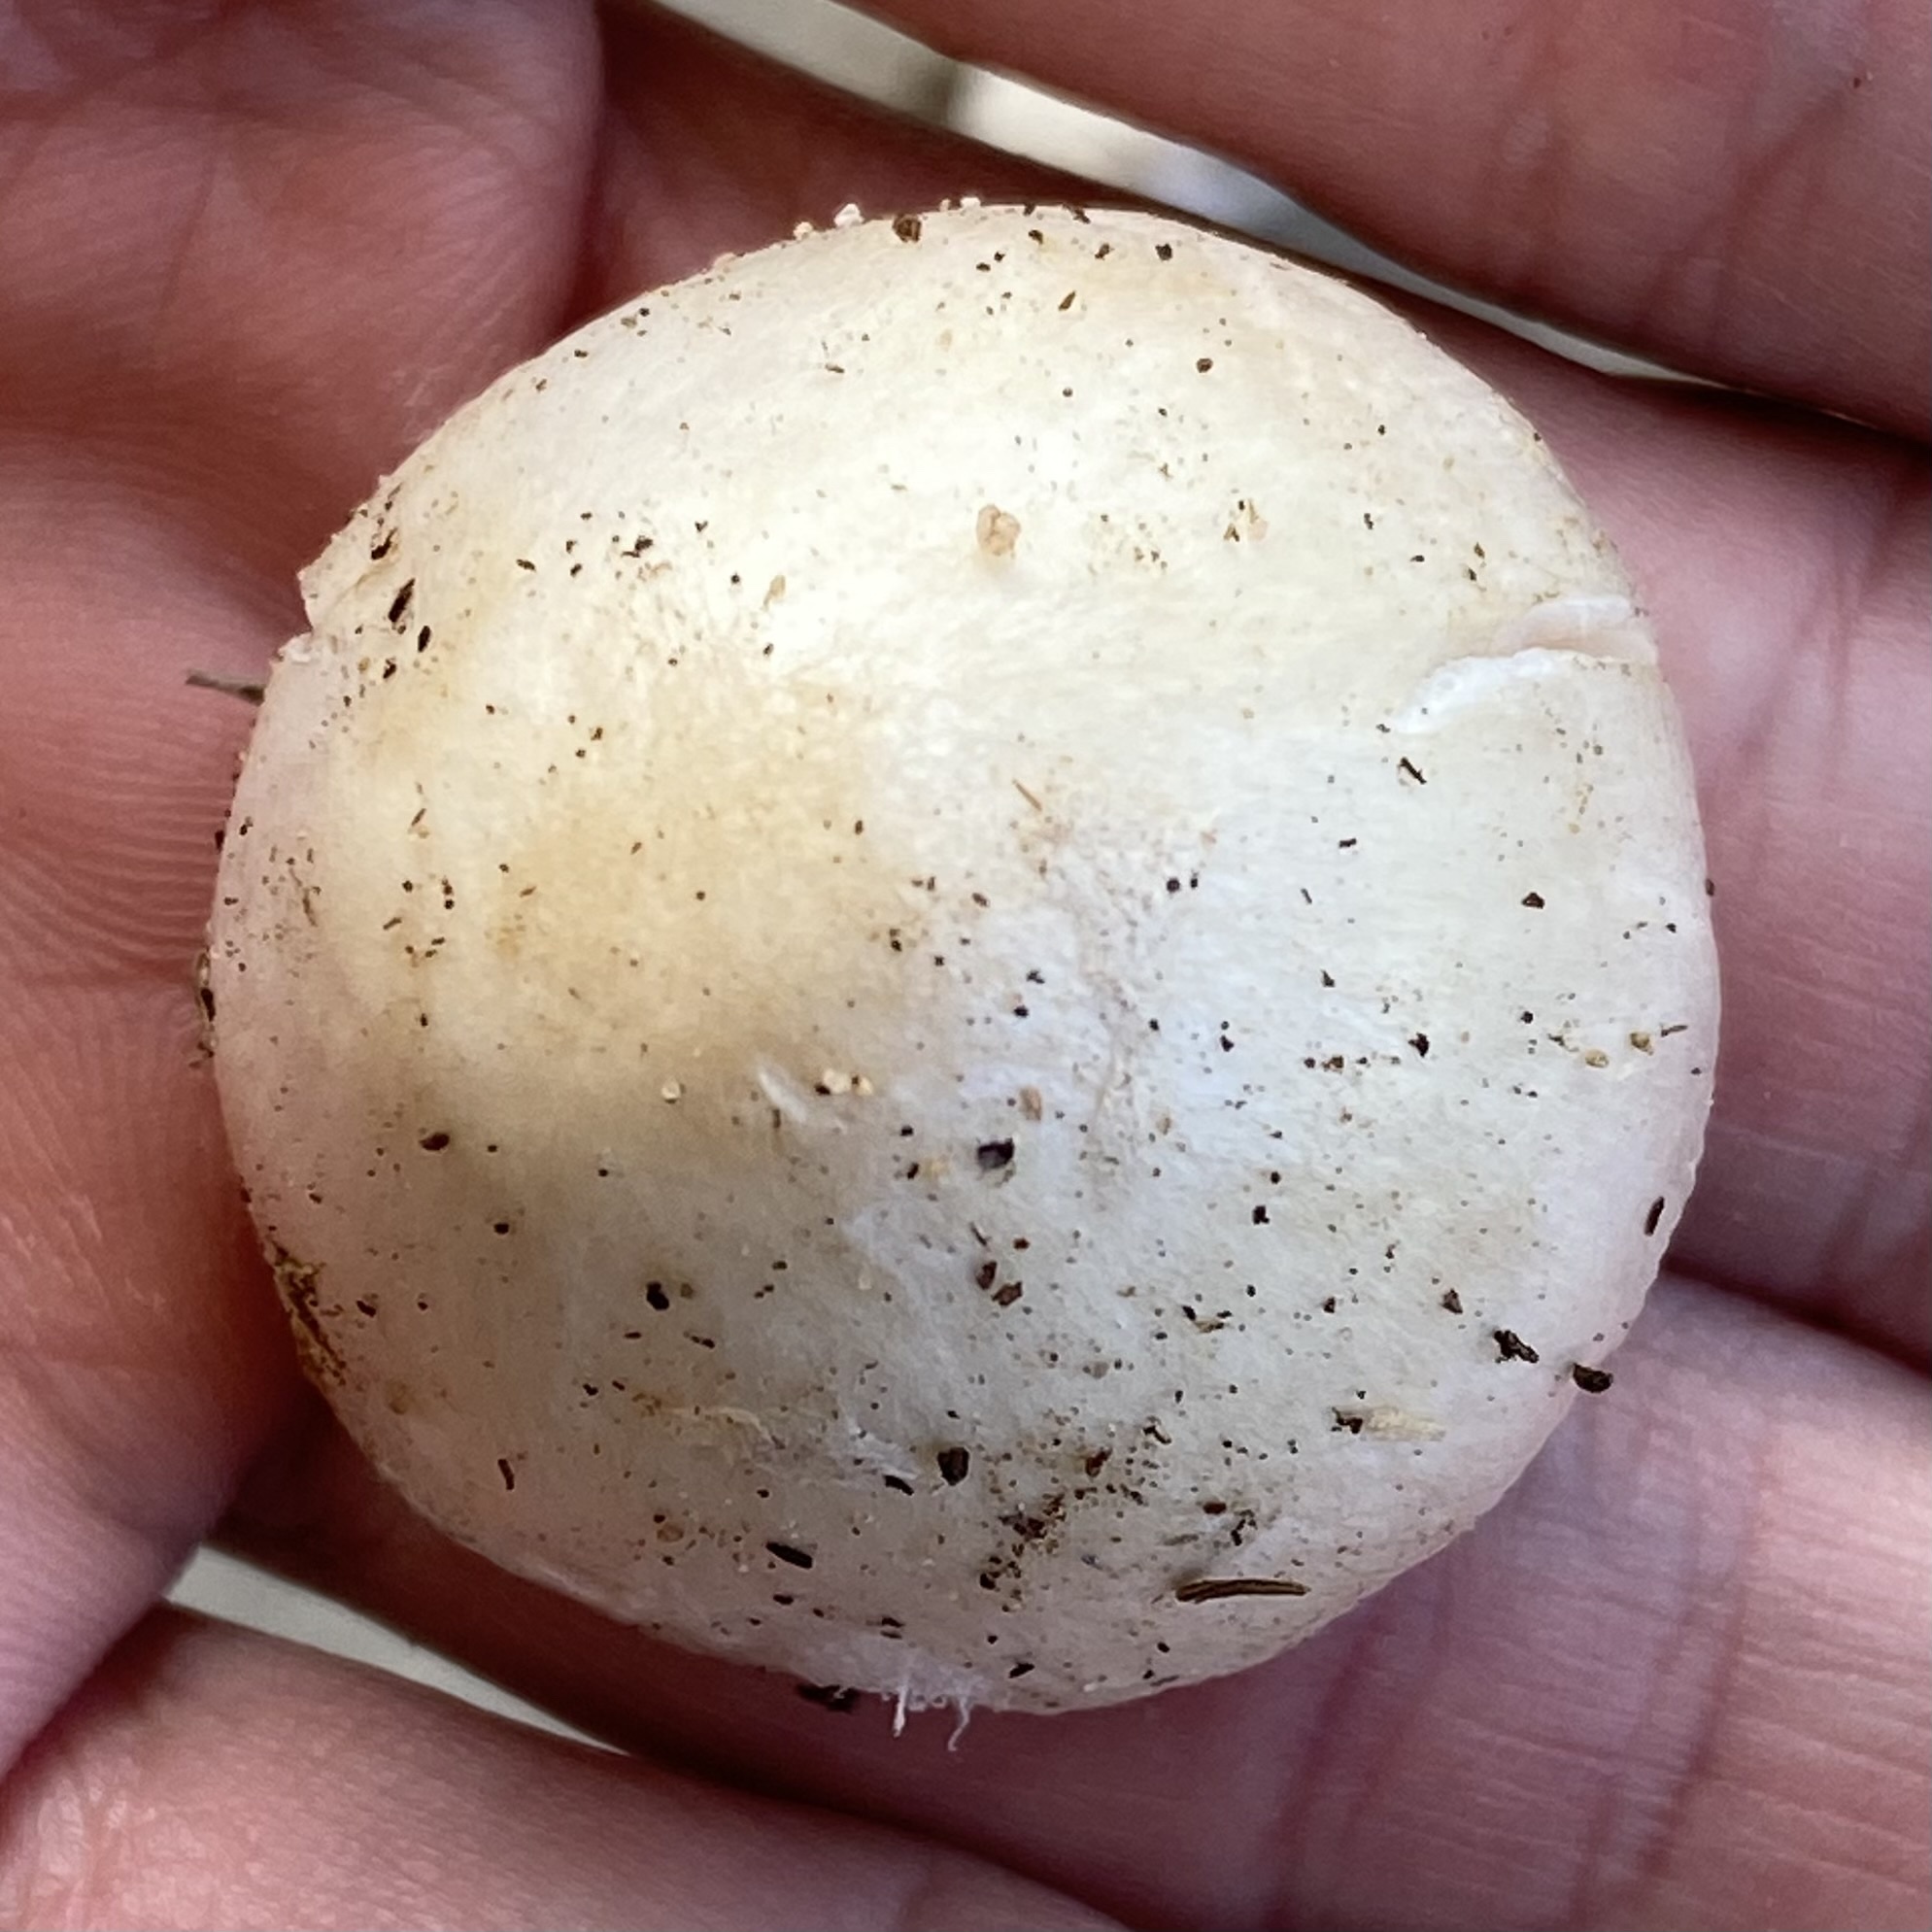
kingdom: Fungi
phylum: Basidiomycota
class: Agaricomycetes
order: Agaricales
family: Pluteaceae
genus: Volvopluteus
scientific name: Volvopluteus gloiocephalus
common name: Stubble rosegill
